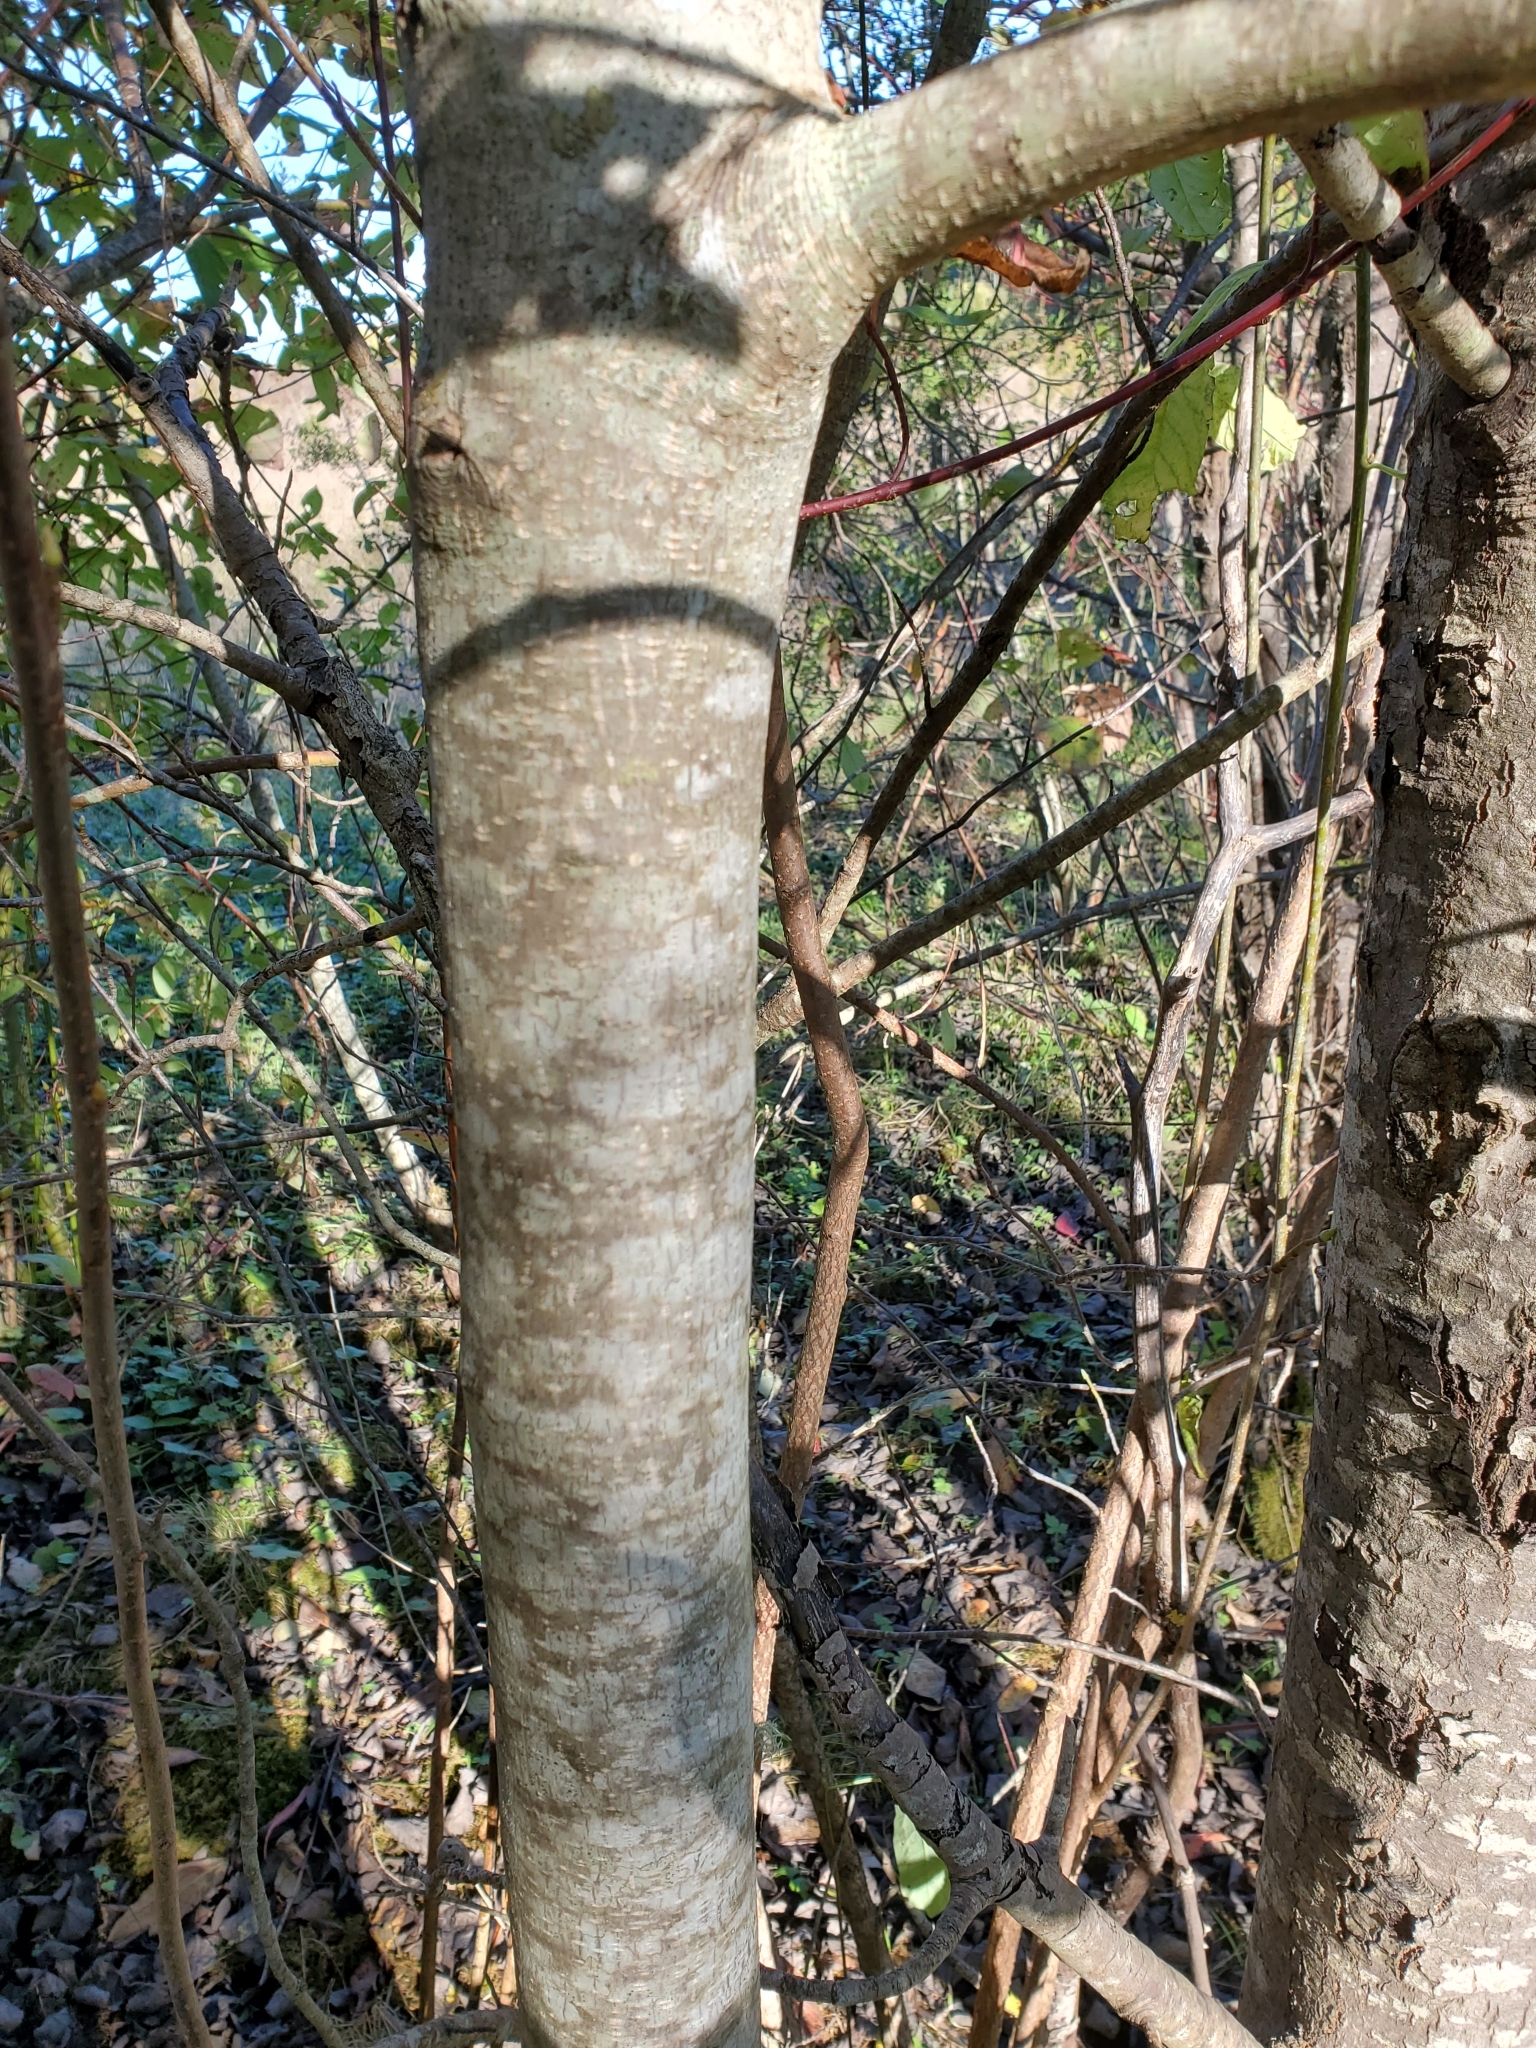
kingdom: Plantae
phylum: Tracheophyta
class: Magnoliopsida
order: Rosales
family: Rhamnaceae
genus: Frangula
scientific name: Frangula purshiana
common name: Cascara buckthorn
